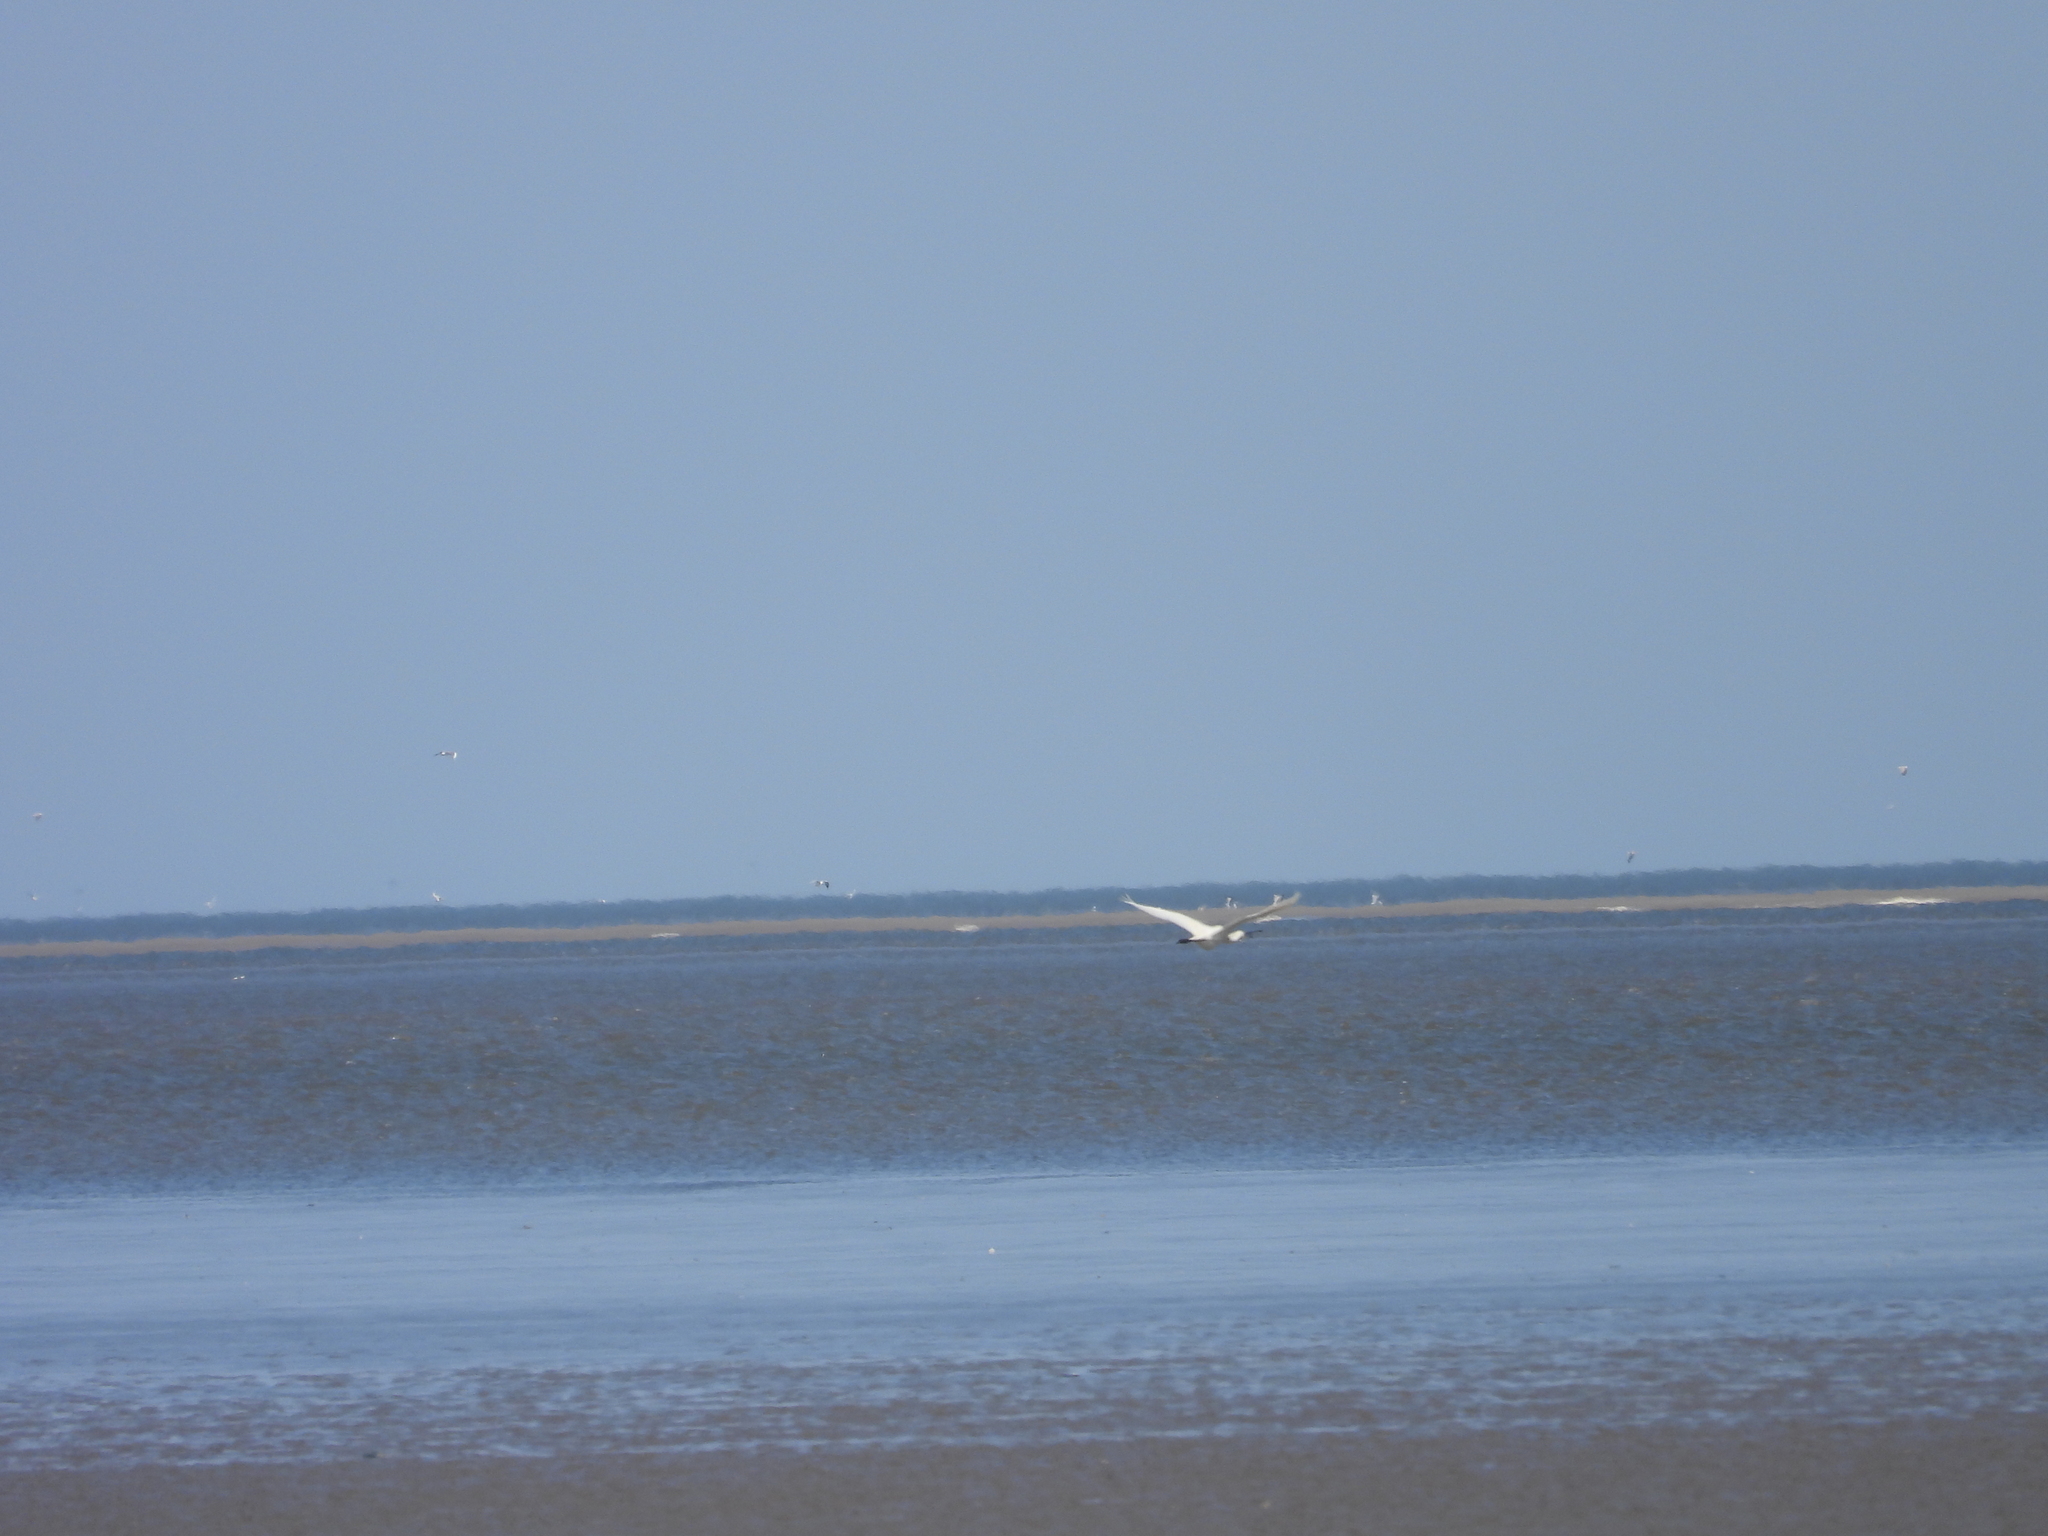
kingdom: Animalia
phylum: Chordata
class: Aves
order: Pelecaniformes
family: Threskiornithidae
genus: Platalea
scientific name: Platalea leucorodia
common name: Eurasian spoonbill
